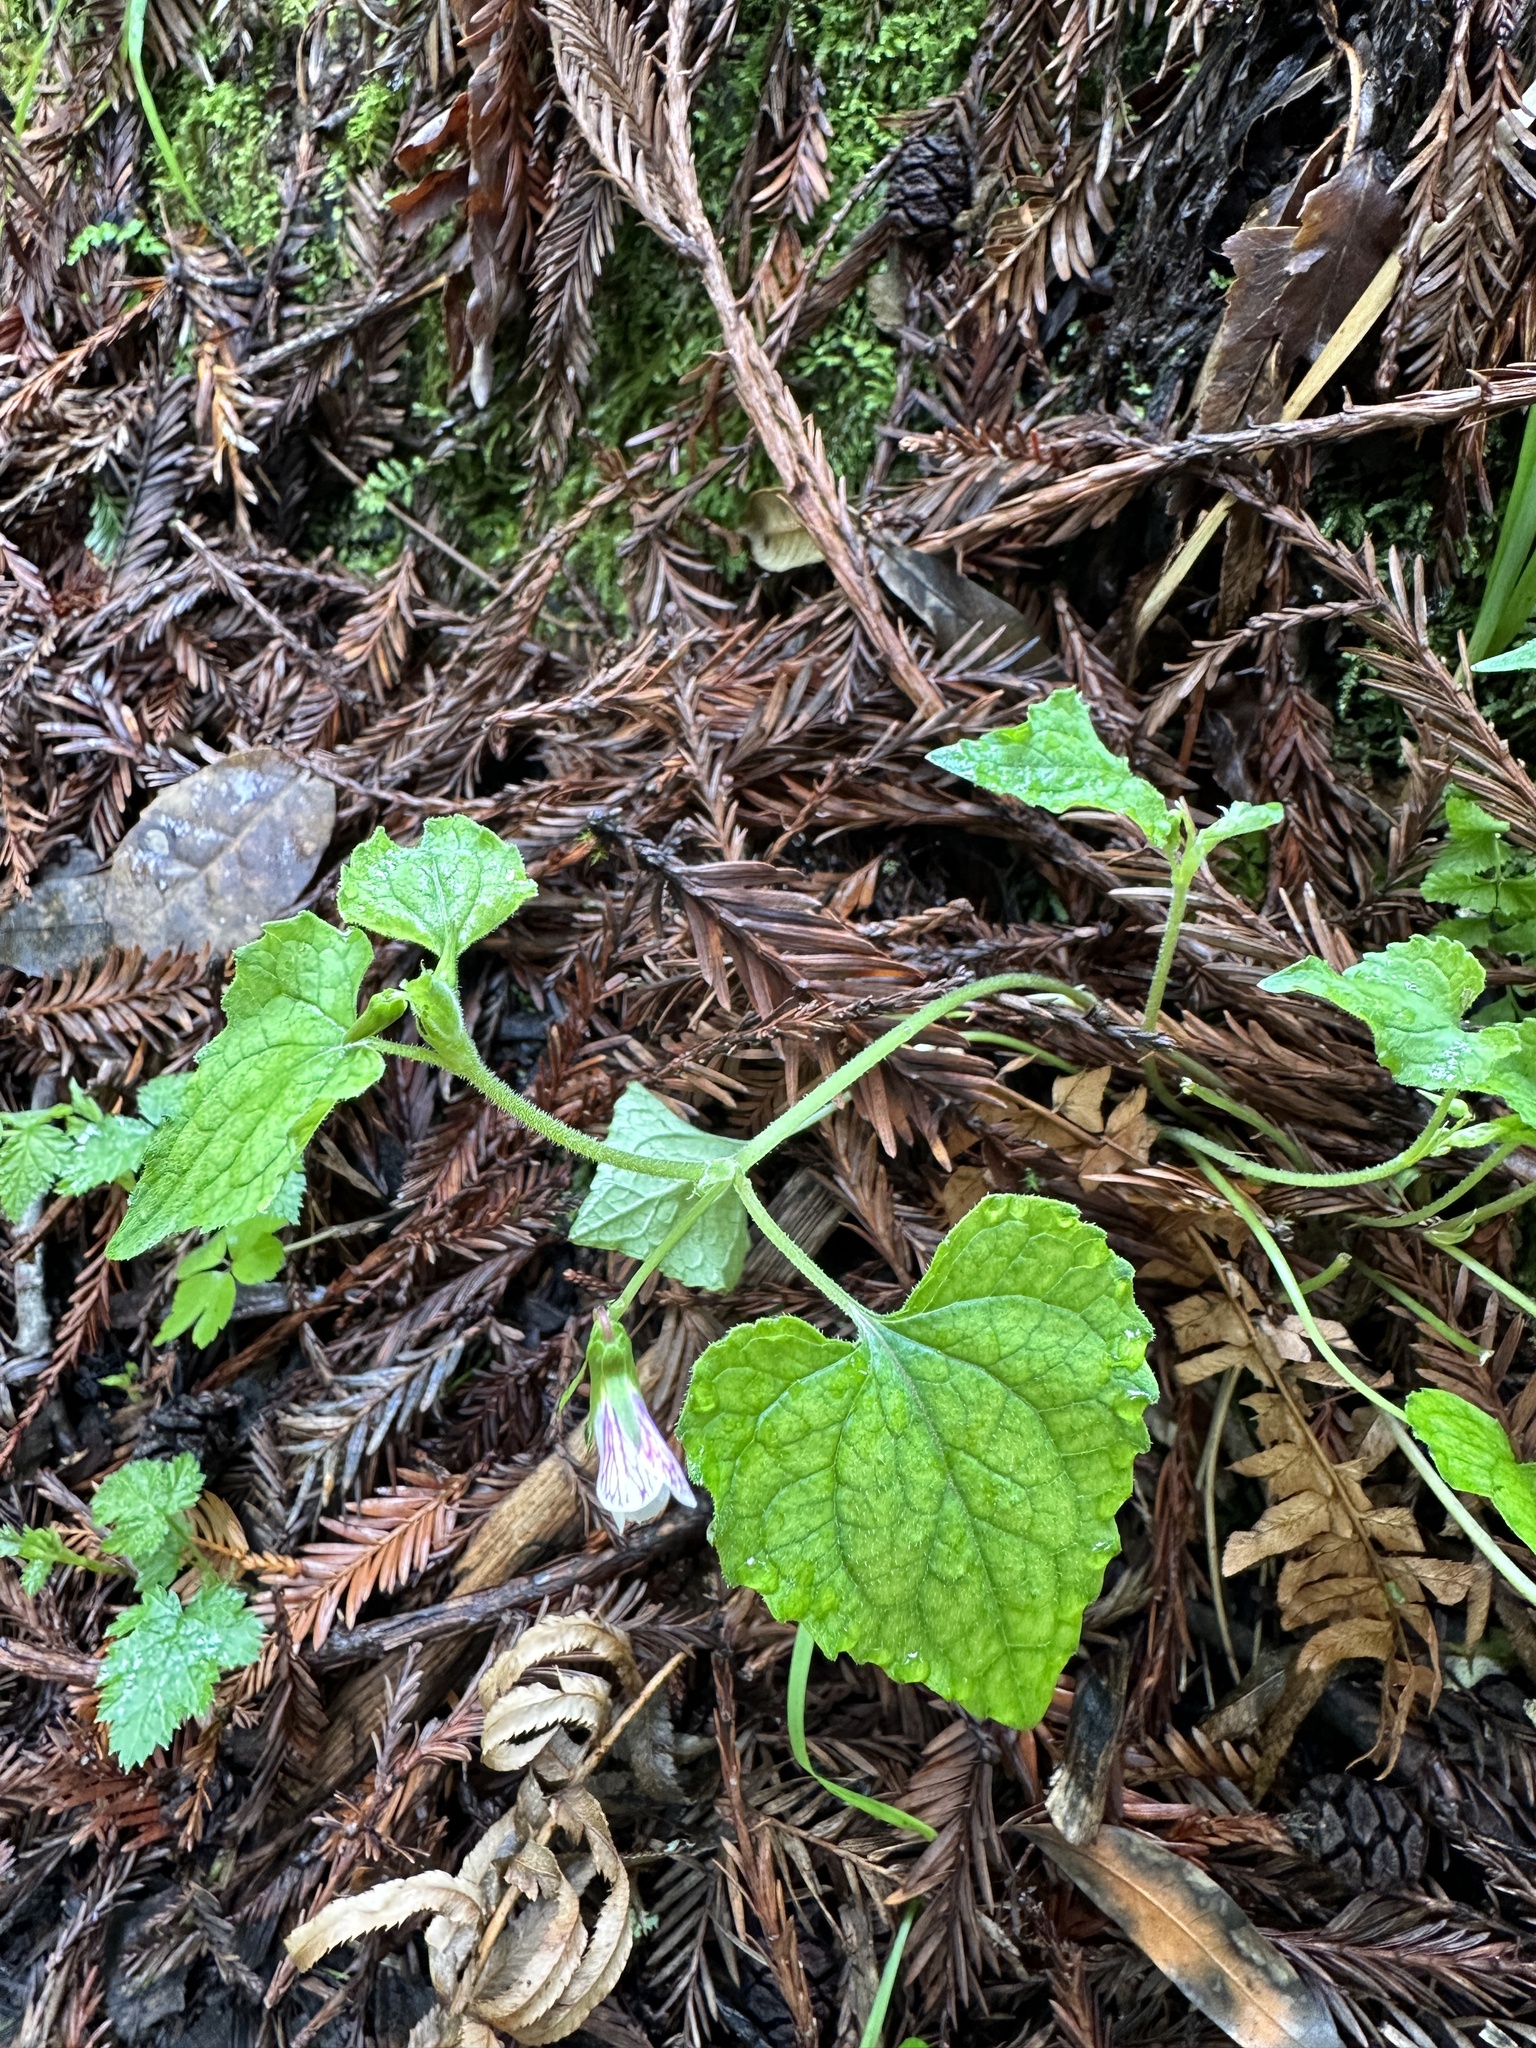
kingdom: Plantae
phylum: Tracheophyta
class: Magnoliopsida
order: Malpighiales
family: Violaceae
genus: Viola
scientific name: Viola ocellata
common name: Western heart's ease
